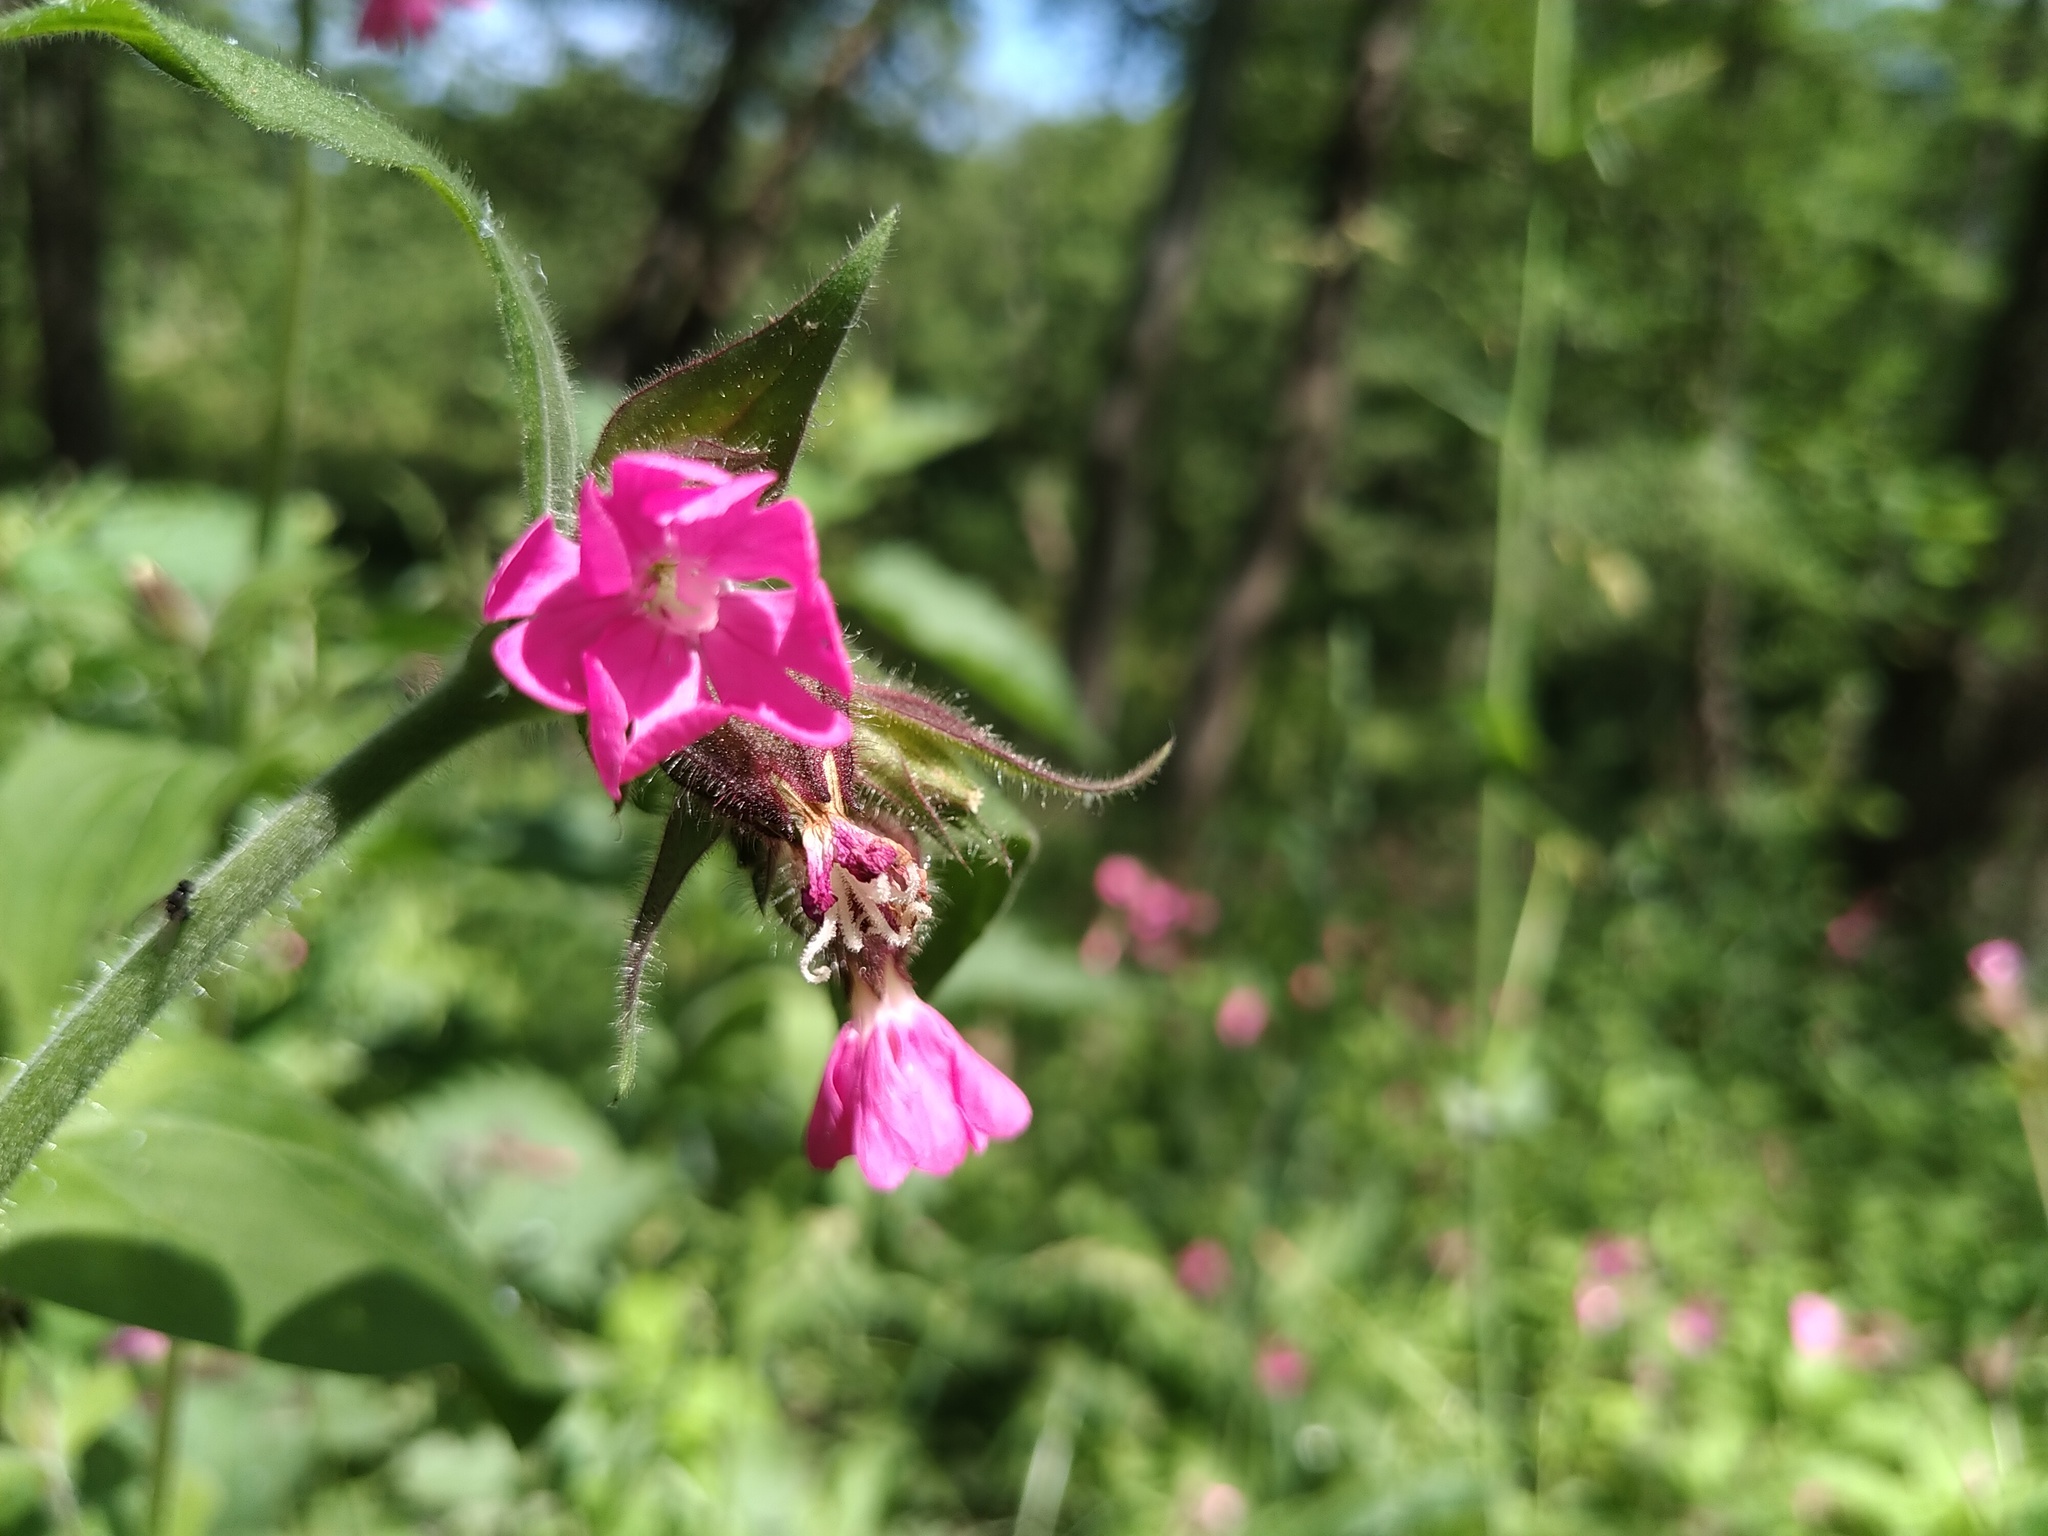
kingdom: Plantae
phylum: Tracheophyta
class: Magnoliopsida
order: Caryophyllales
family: Caryophyllaceae
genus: Silene
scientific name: Silene dioica
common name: Red campion
